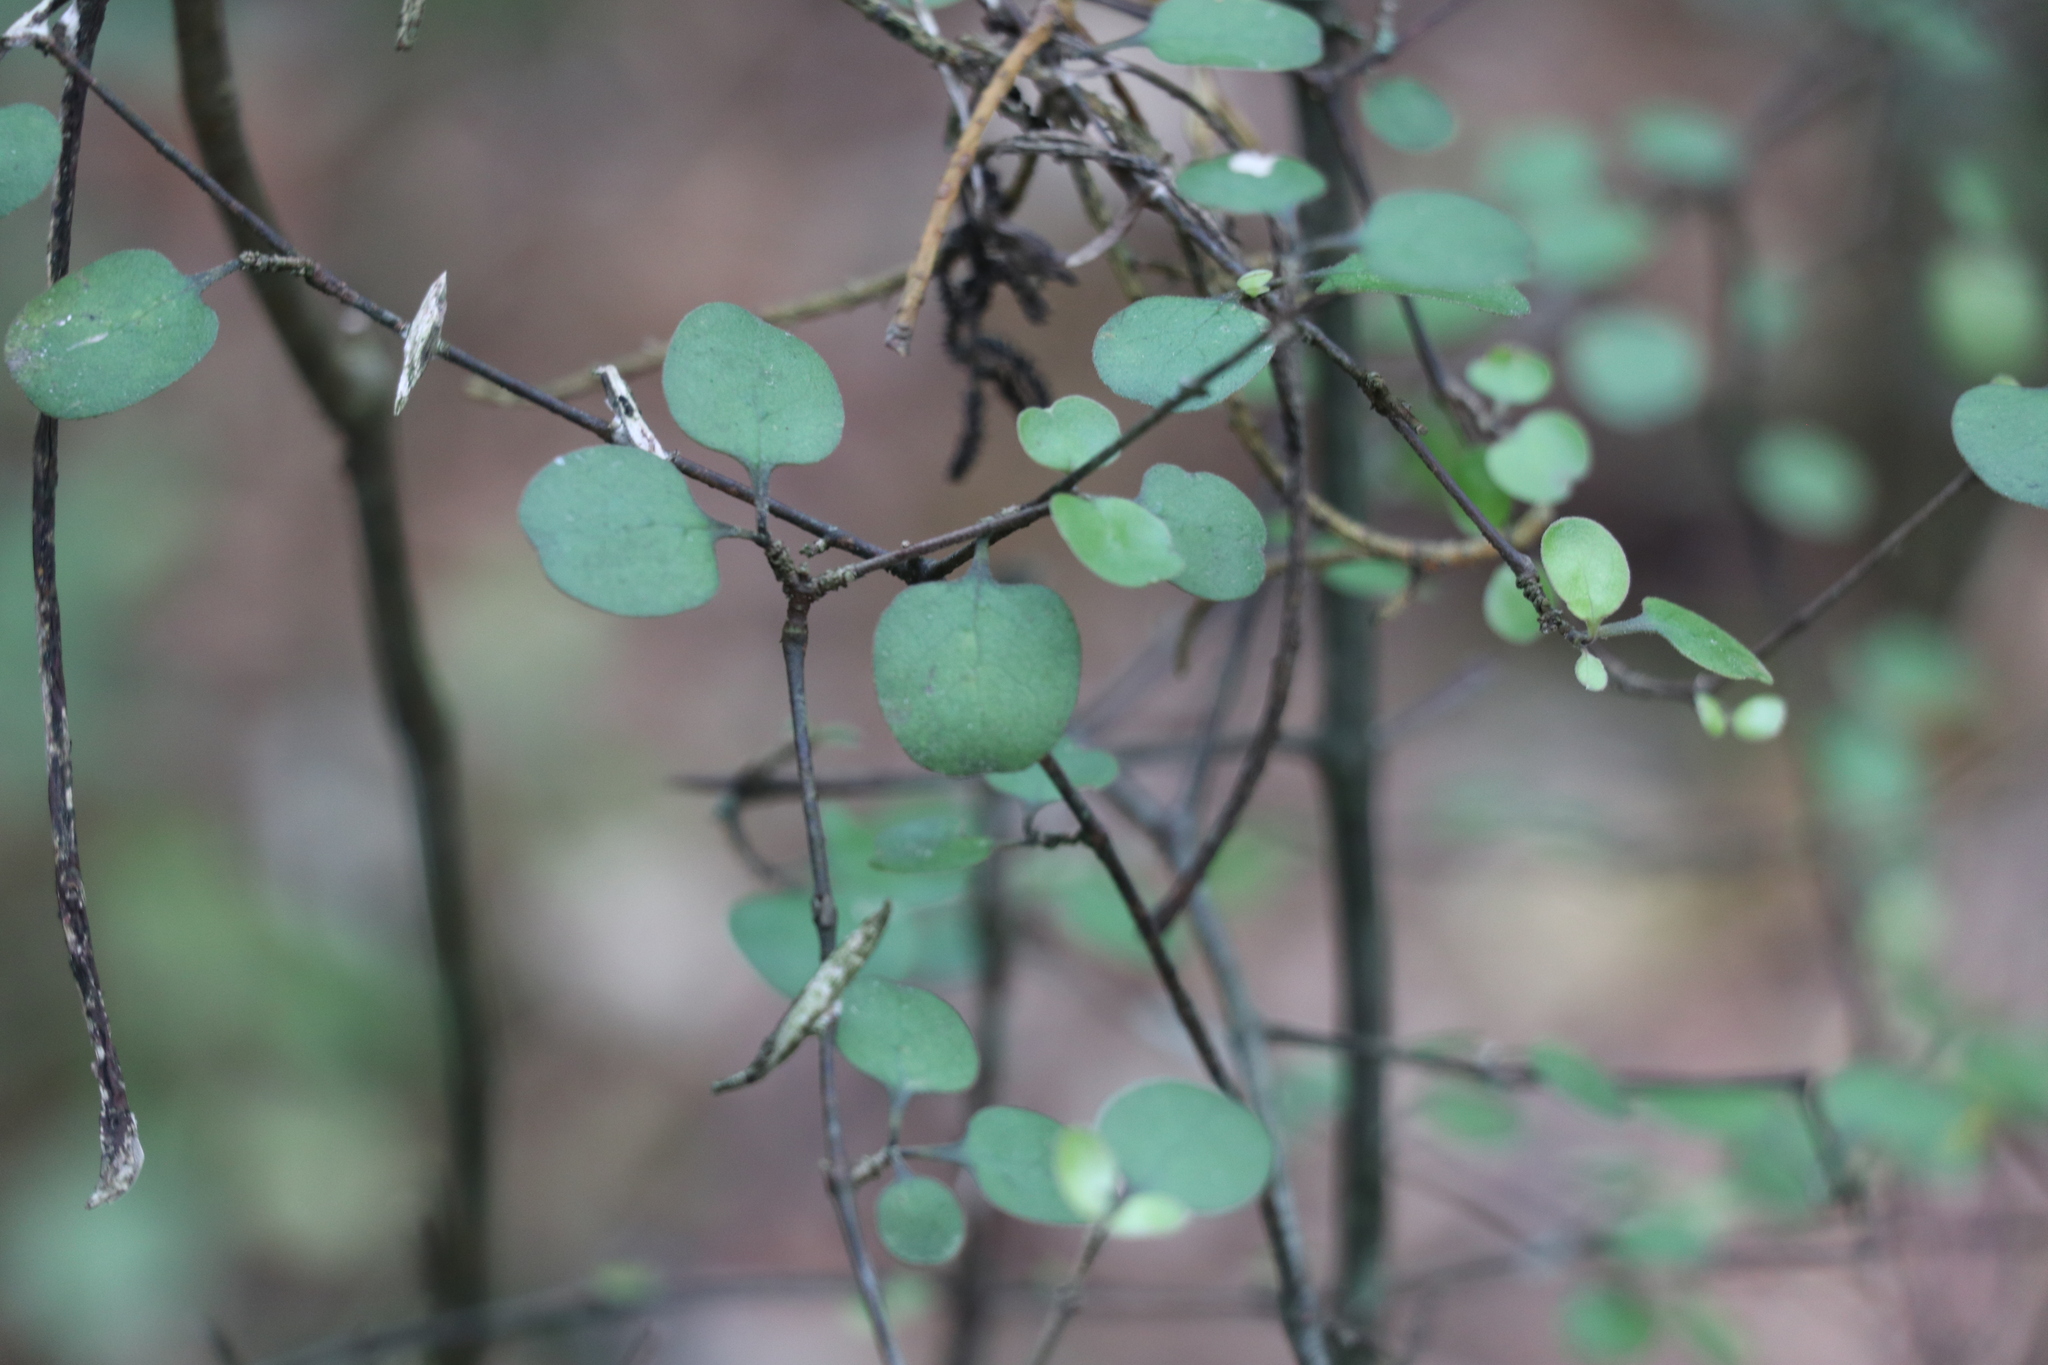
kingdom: Plantae
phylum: Tracheophyta
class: Magnoliopsida
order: Gentianales
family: Rubiaceae
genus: Coprosma
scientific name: Coprosma crassifolia
